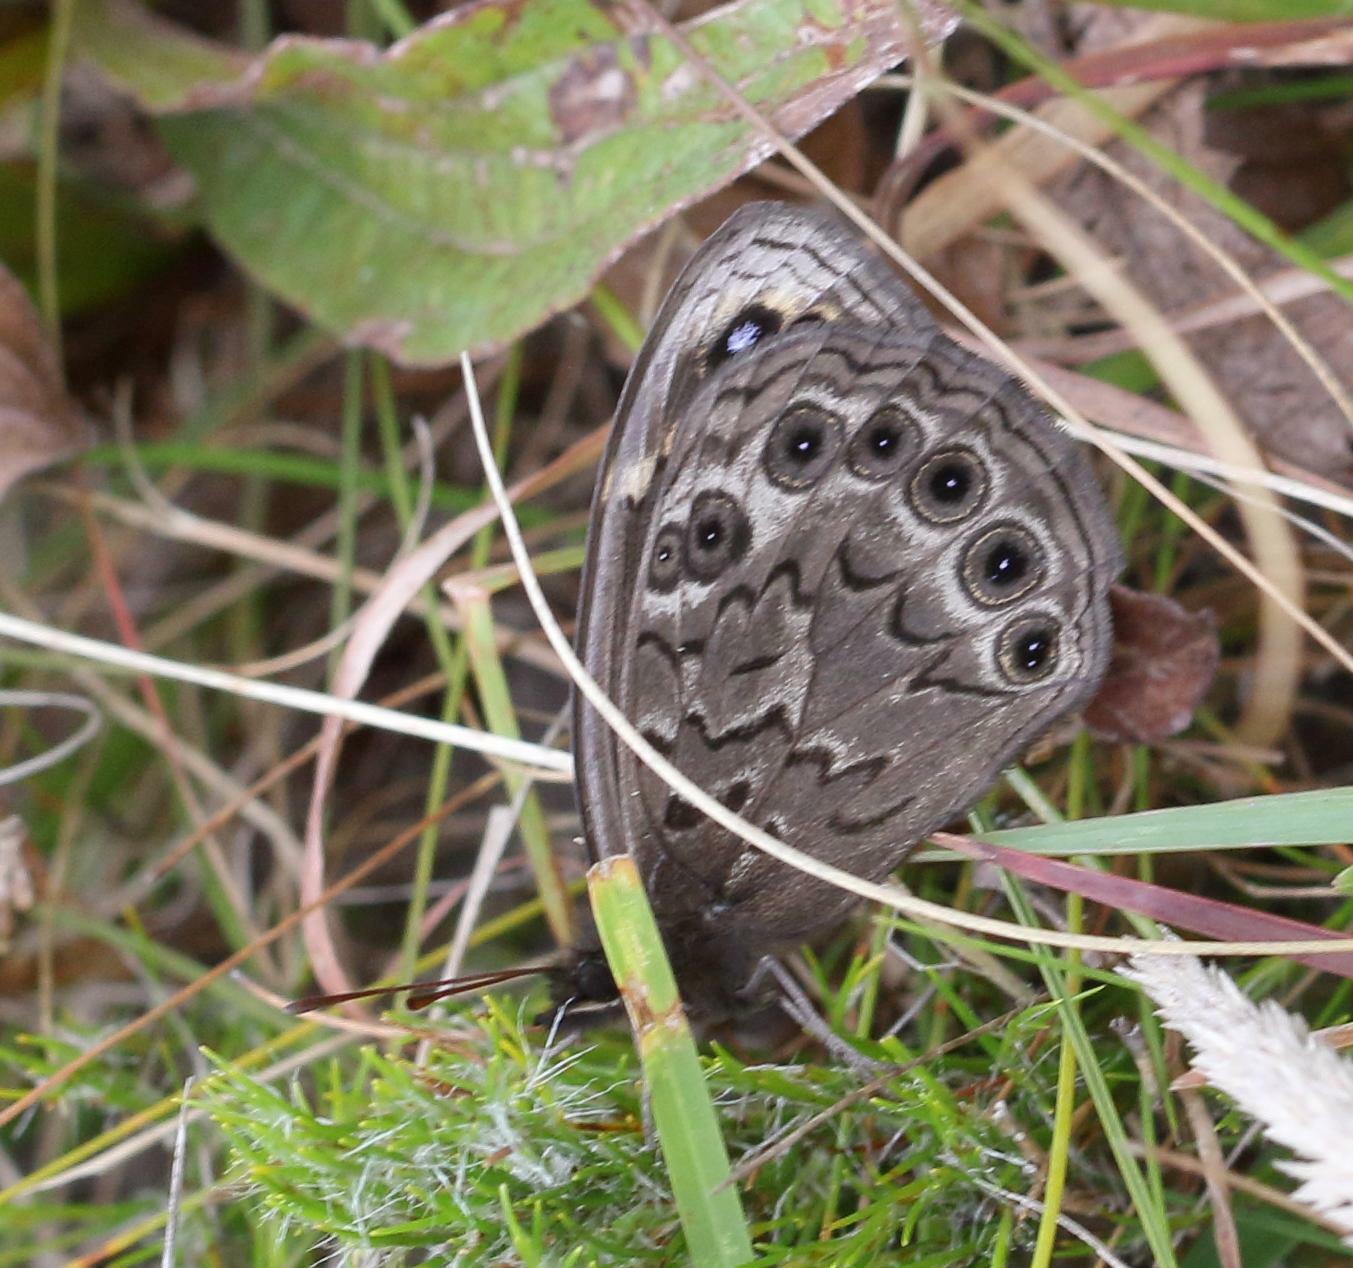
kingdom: Animalia
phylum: Arthropoda
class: Insecta
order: Lepidoptera
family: Nymphalidae
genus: Dira
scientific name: Dira clytus
